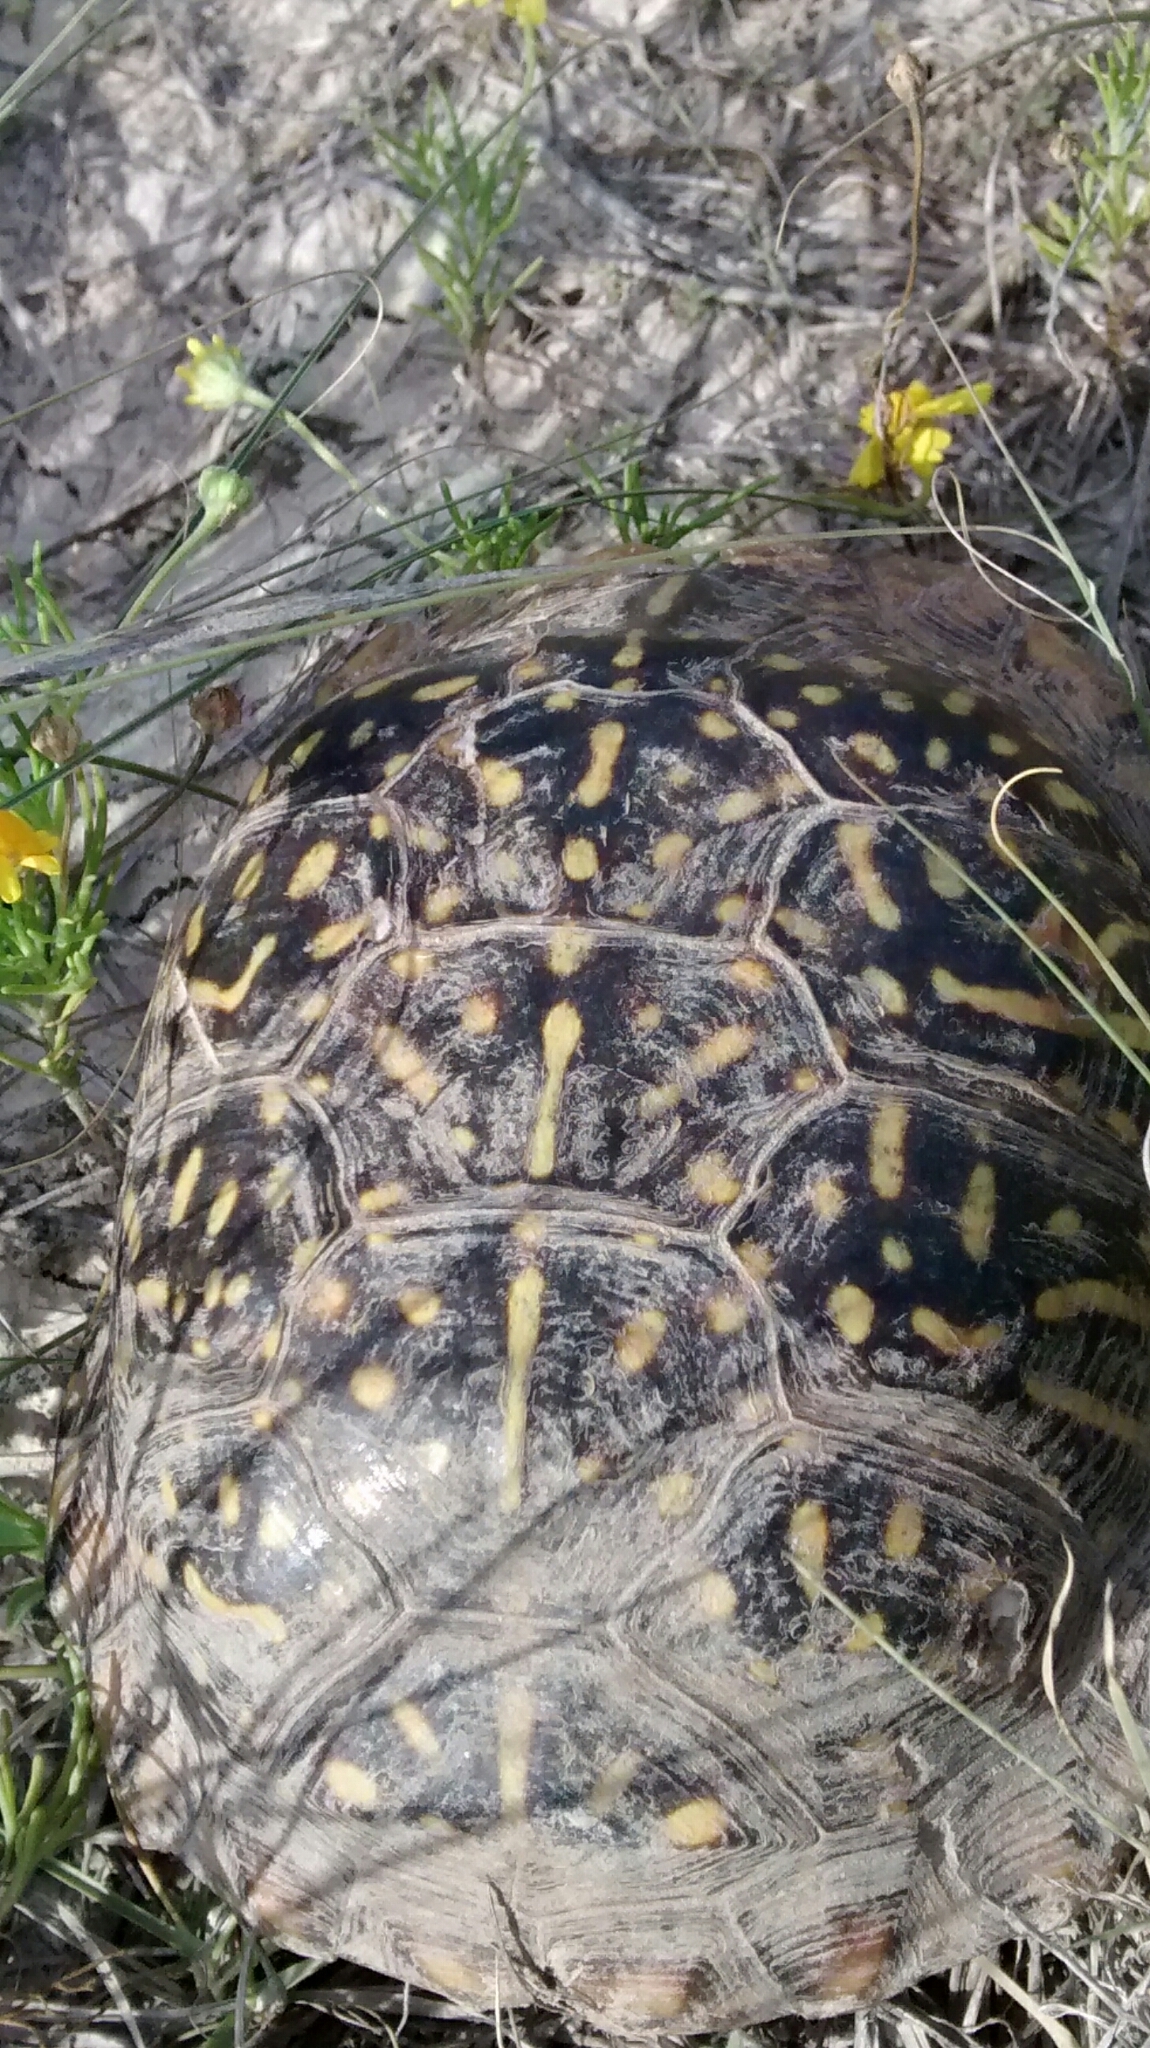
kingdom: Animalia
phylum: Chordata
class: Testudines
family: Emydidae
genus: Terrapene
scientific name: Terrapene ornata
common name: Western box turtle
